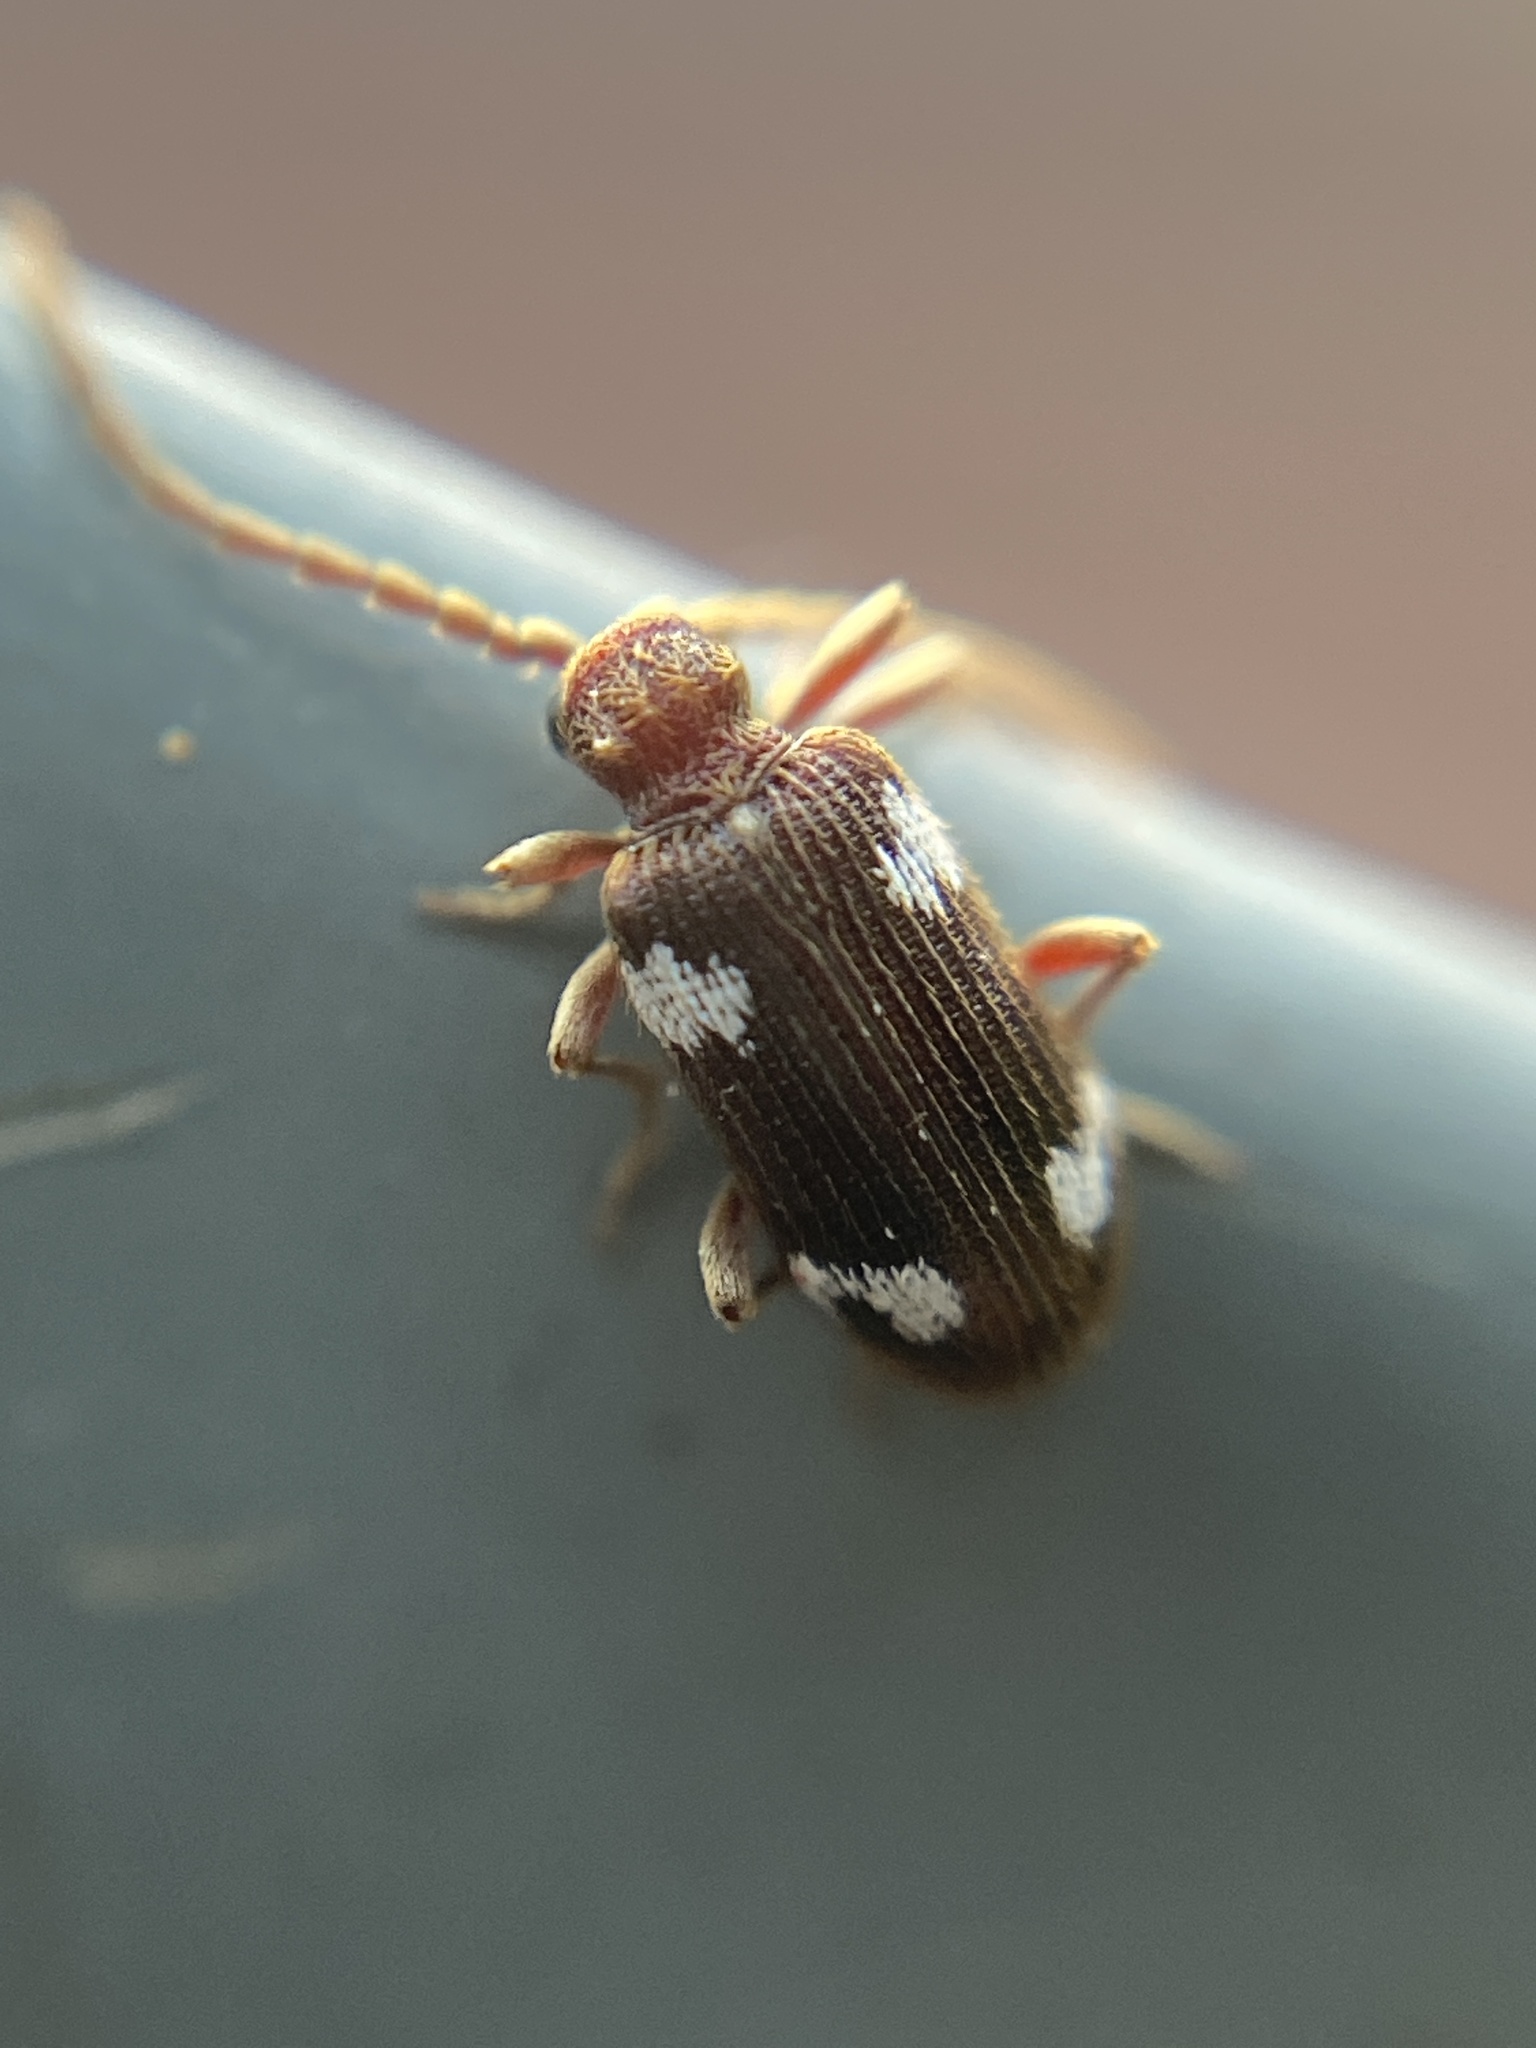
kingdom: Animalia
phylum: Arthropoda
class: Insecta
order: Coleoptera
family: Ptinidae
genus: Ptinus
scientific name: Ptinus sexpunctatus
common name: Six-spotted spider beetle
